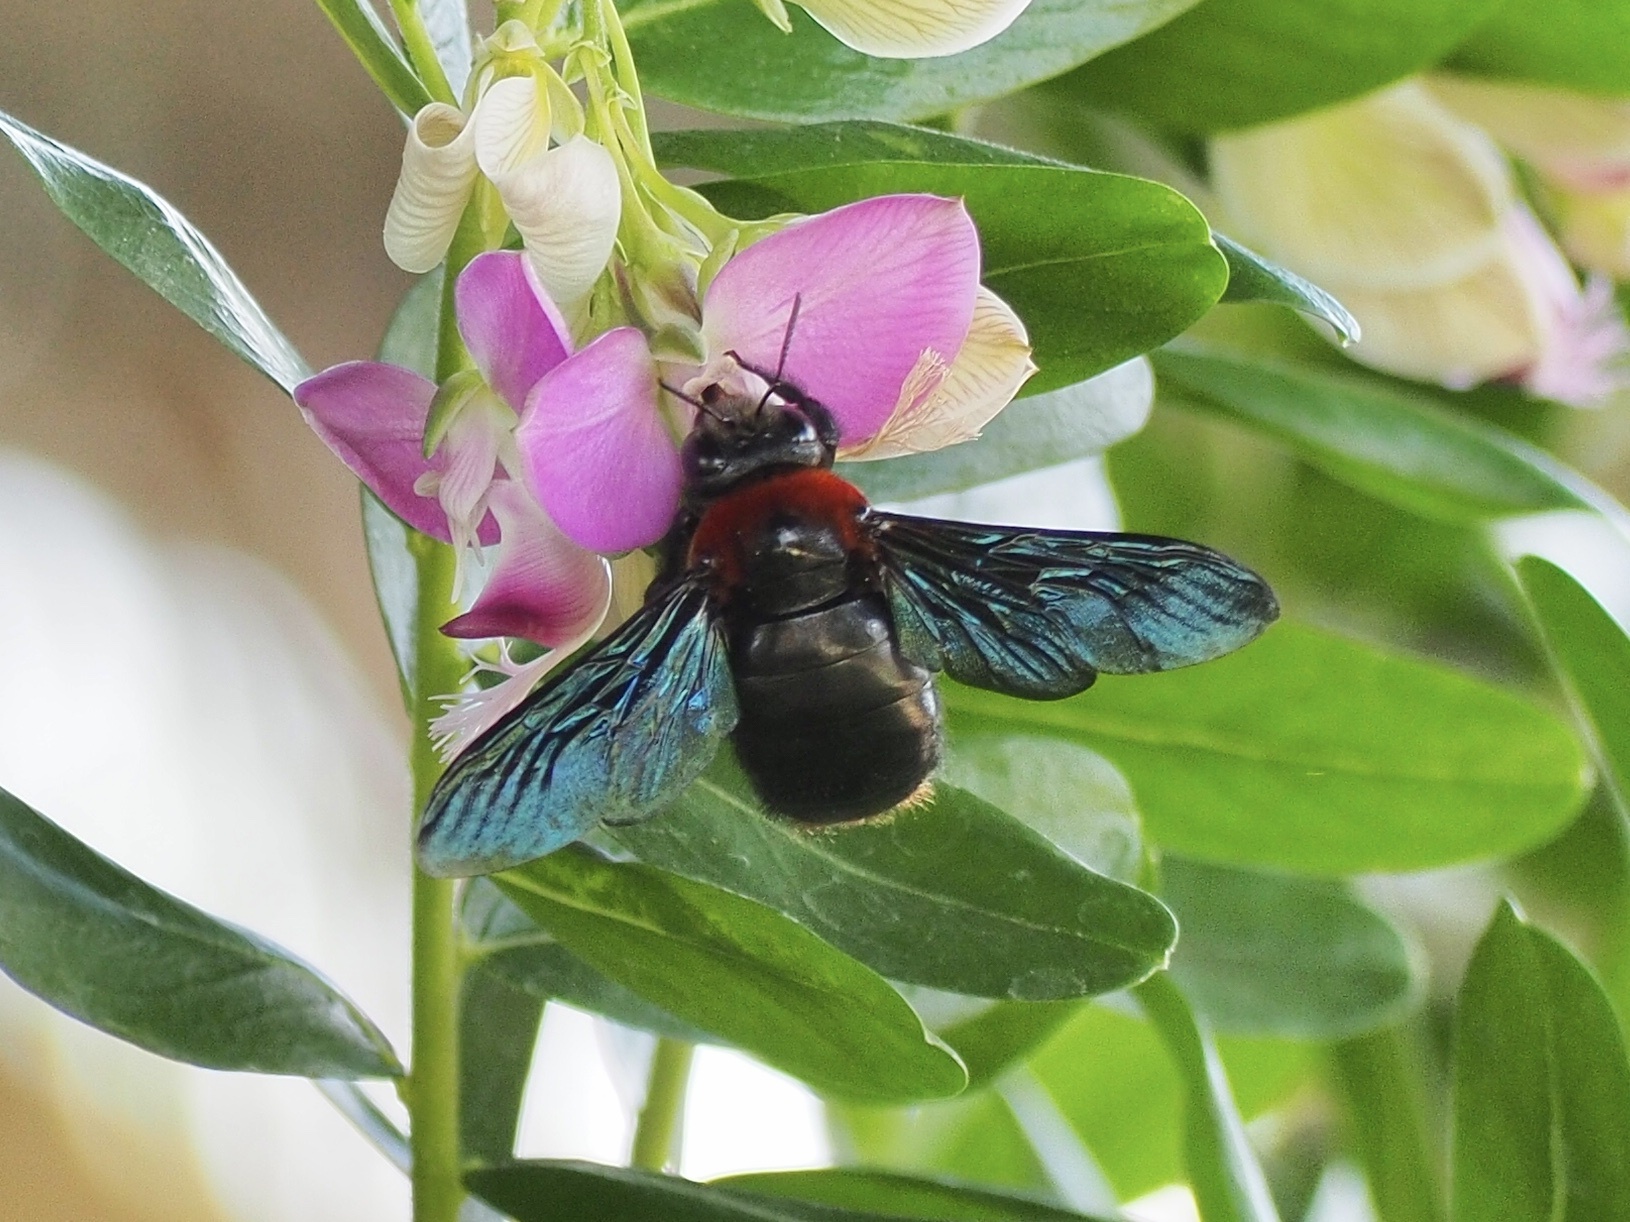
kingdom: Animalia
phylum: Arthropoda
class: Insecta
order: Hymenoptera
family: Apidae
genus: Xylocopa
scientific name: Xylocopa flavorufa
